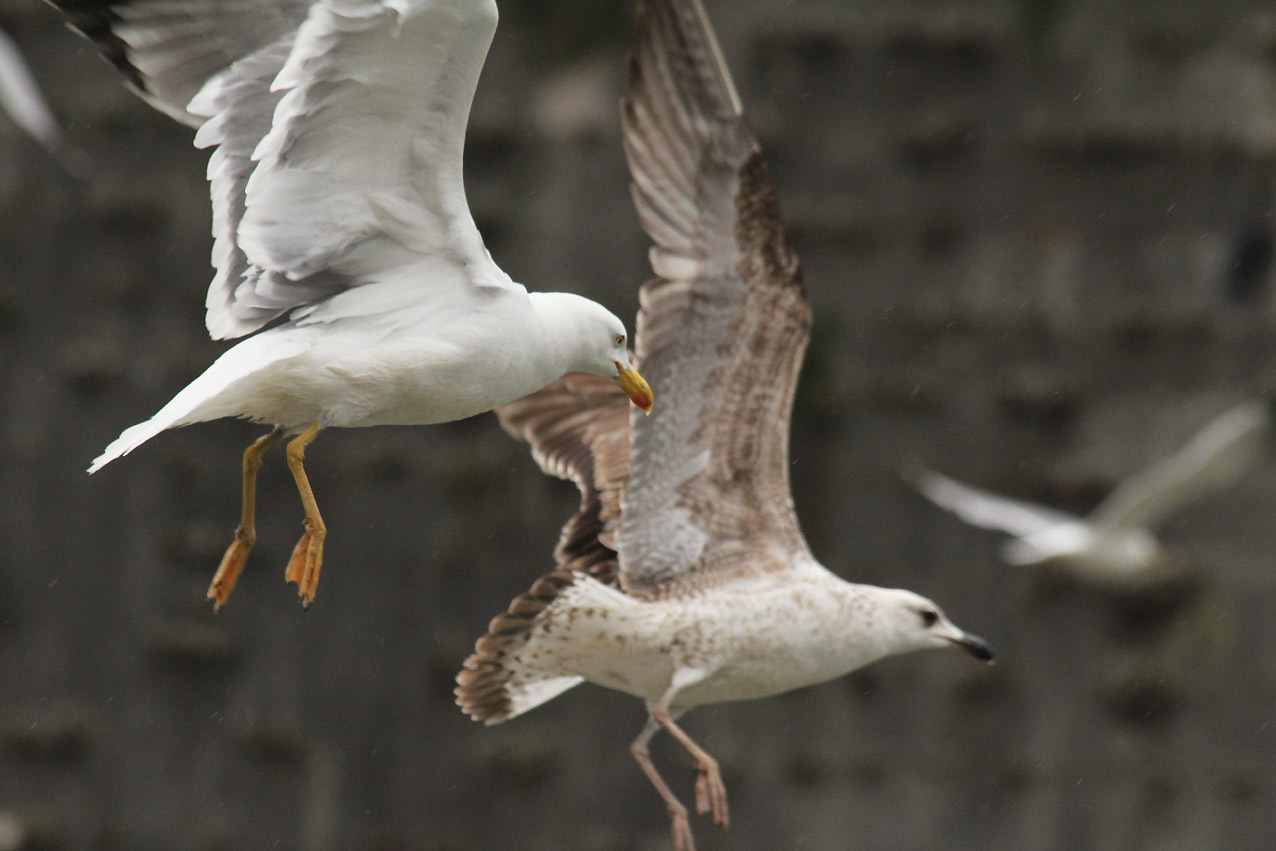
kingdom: Animalia
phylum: Chordata
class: Aves
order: Charadriiformes
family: Laridae
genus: Larus
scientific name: Larus michahellis
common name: Yellow-legged gull
